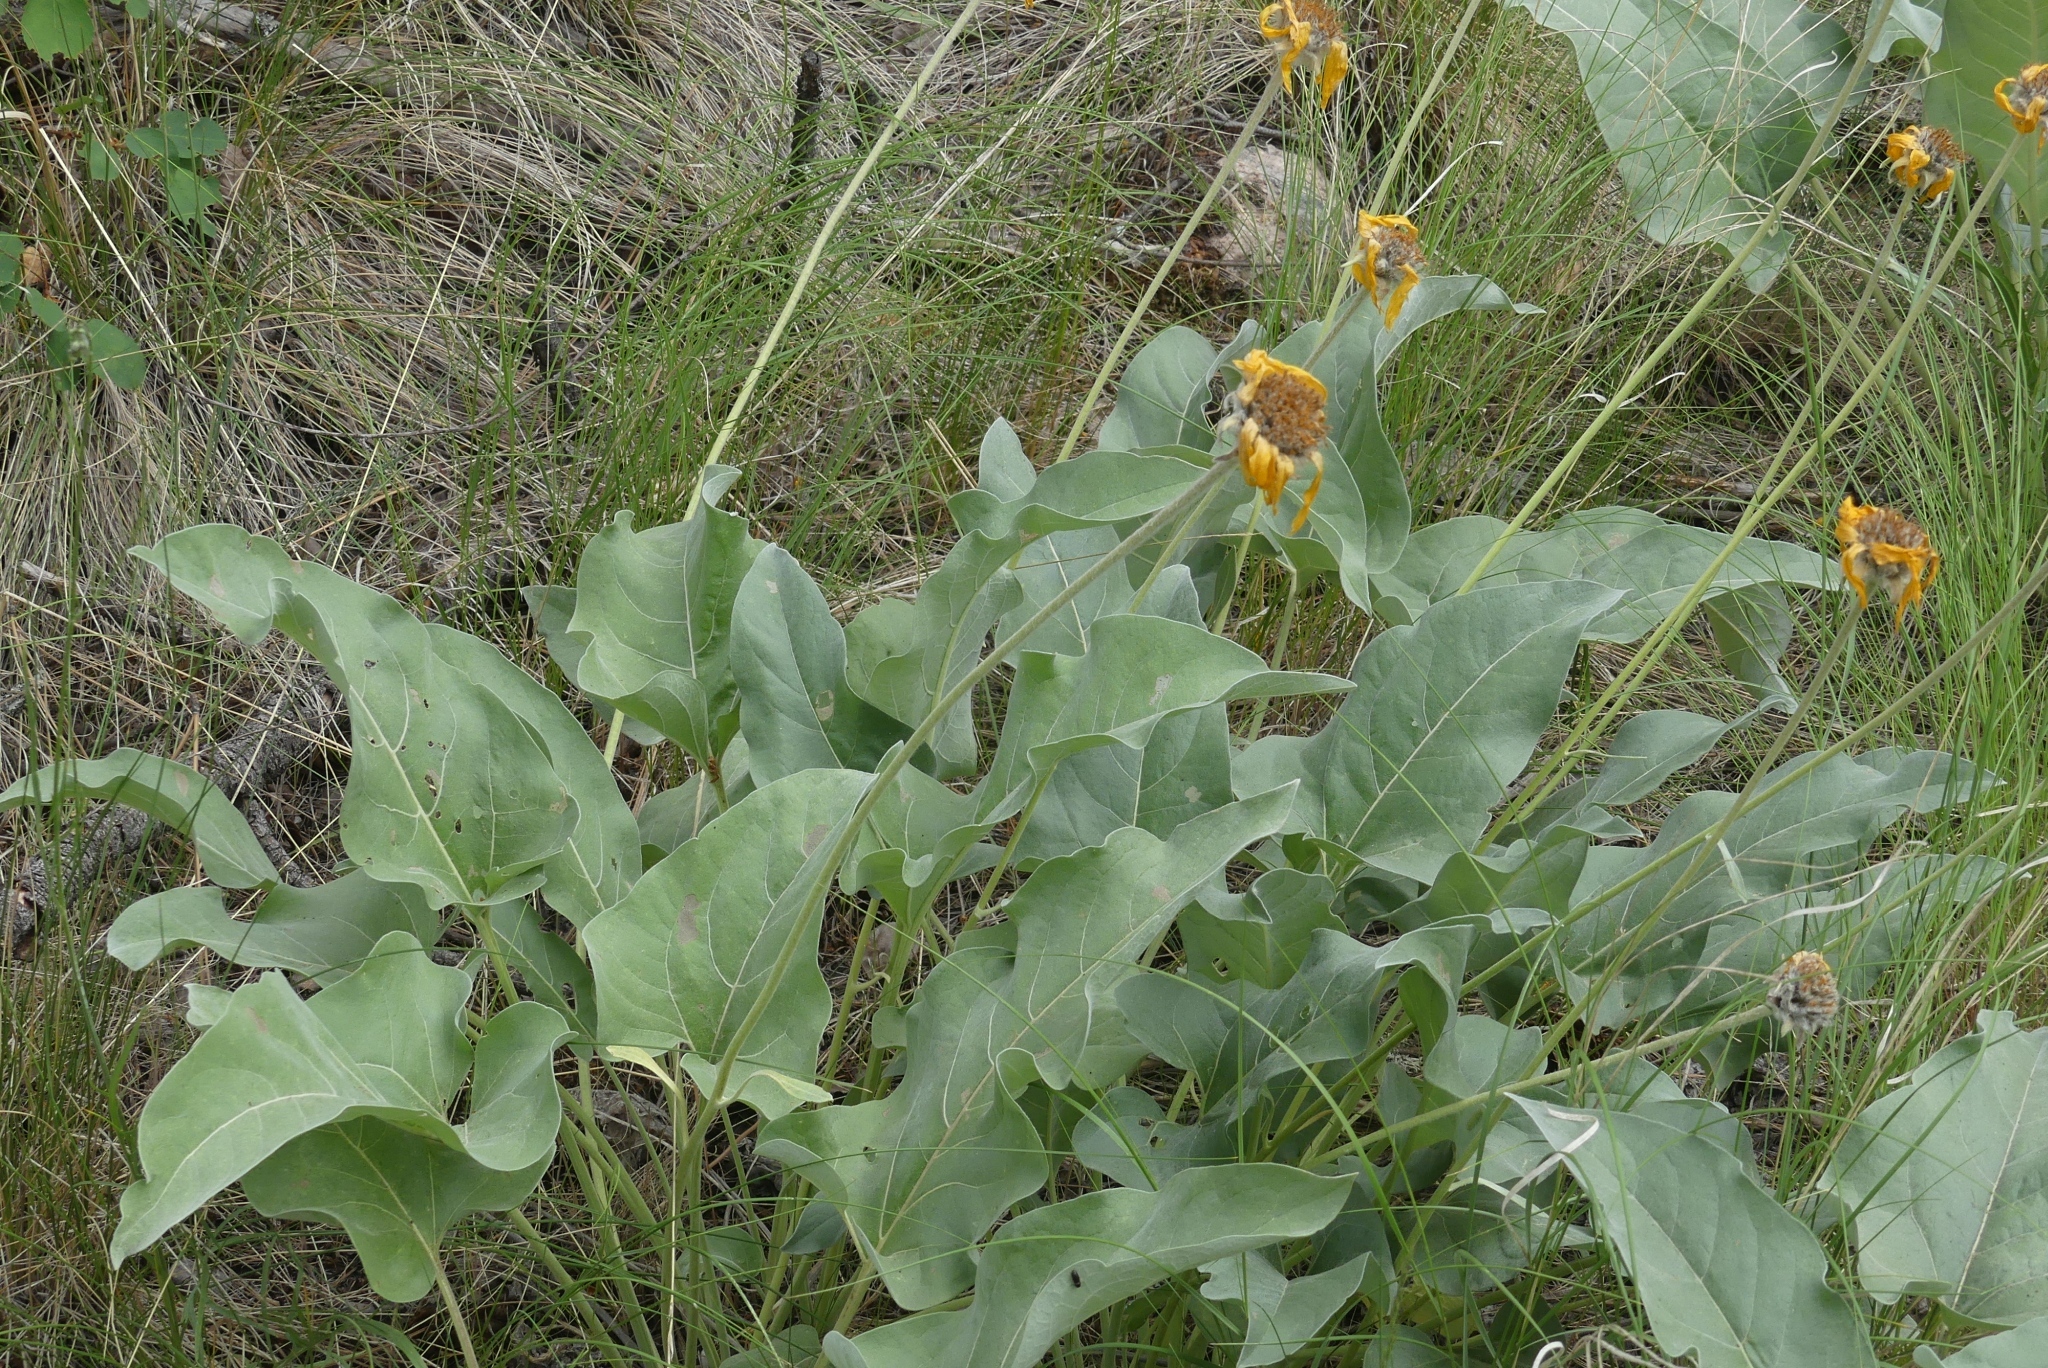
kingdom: Plantae
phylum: Tracheophyta
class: Magnoliopsida
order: Asterales
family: Asteraceae
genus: Wyethia
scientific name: Wyethia sagittata
